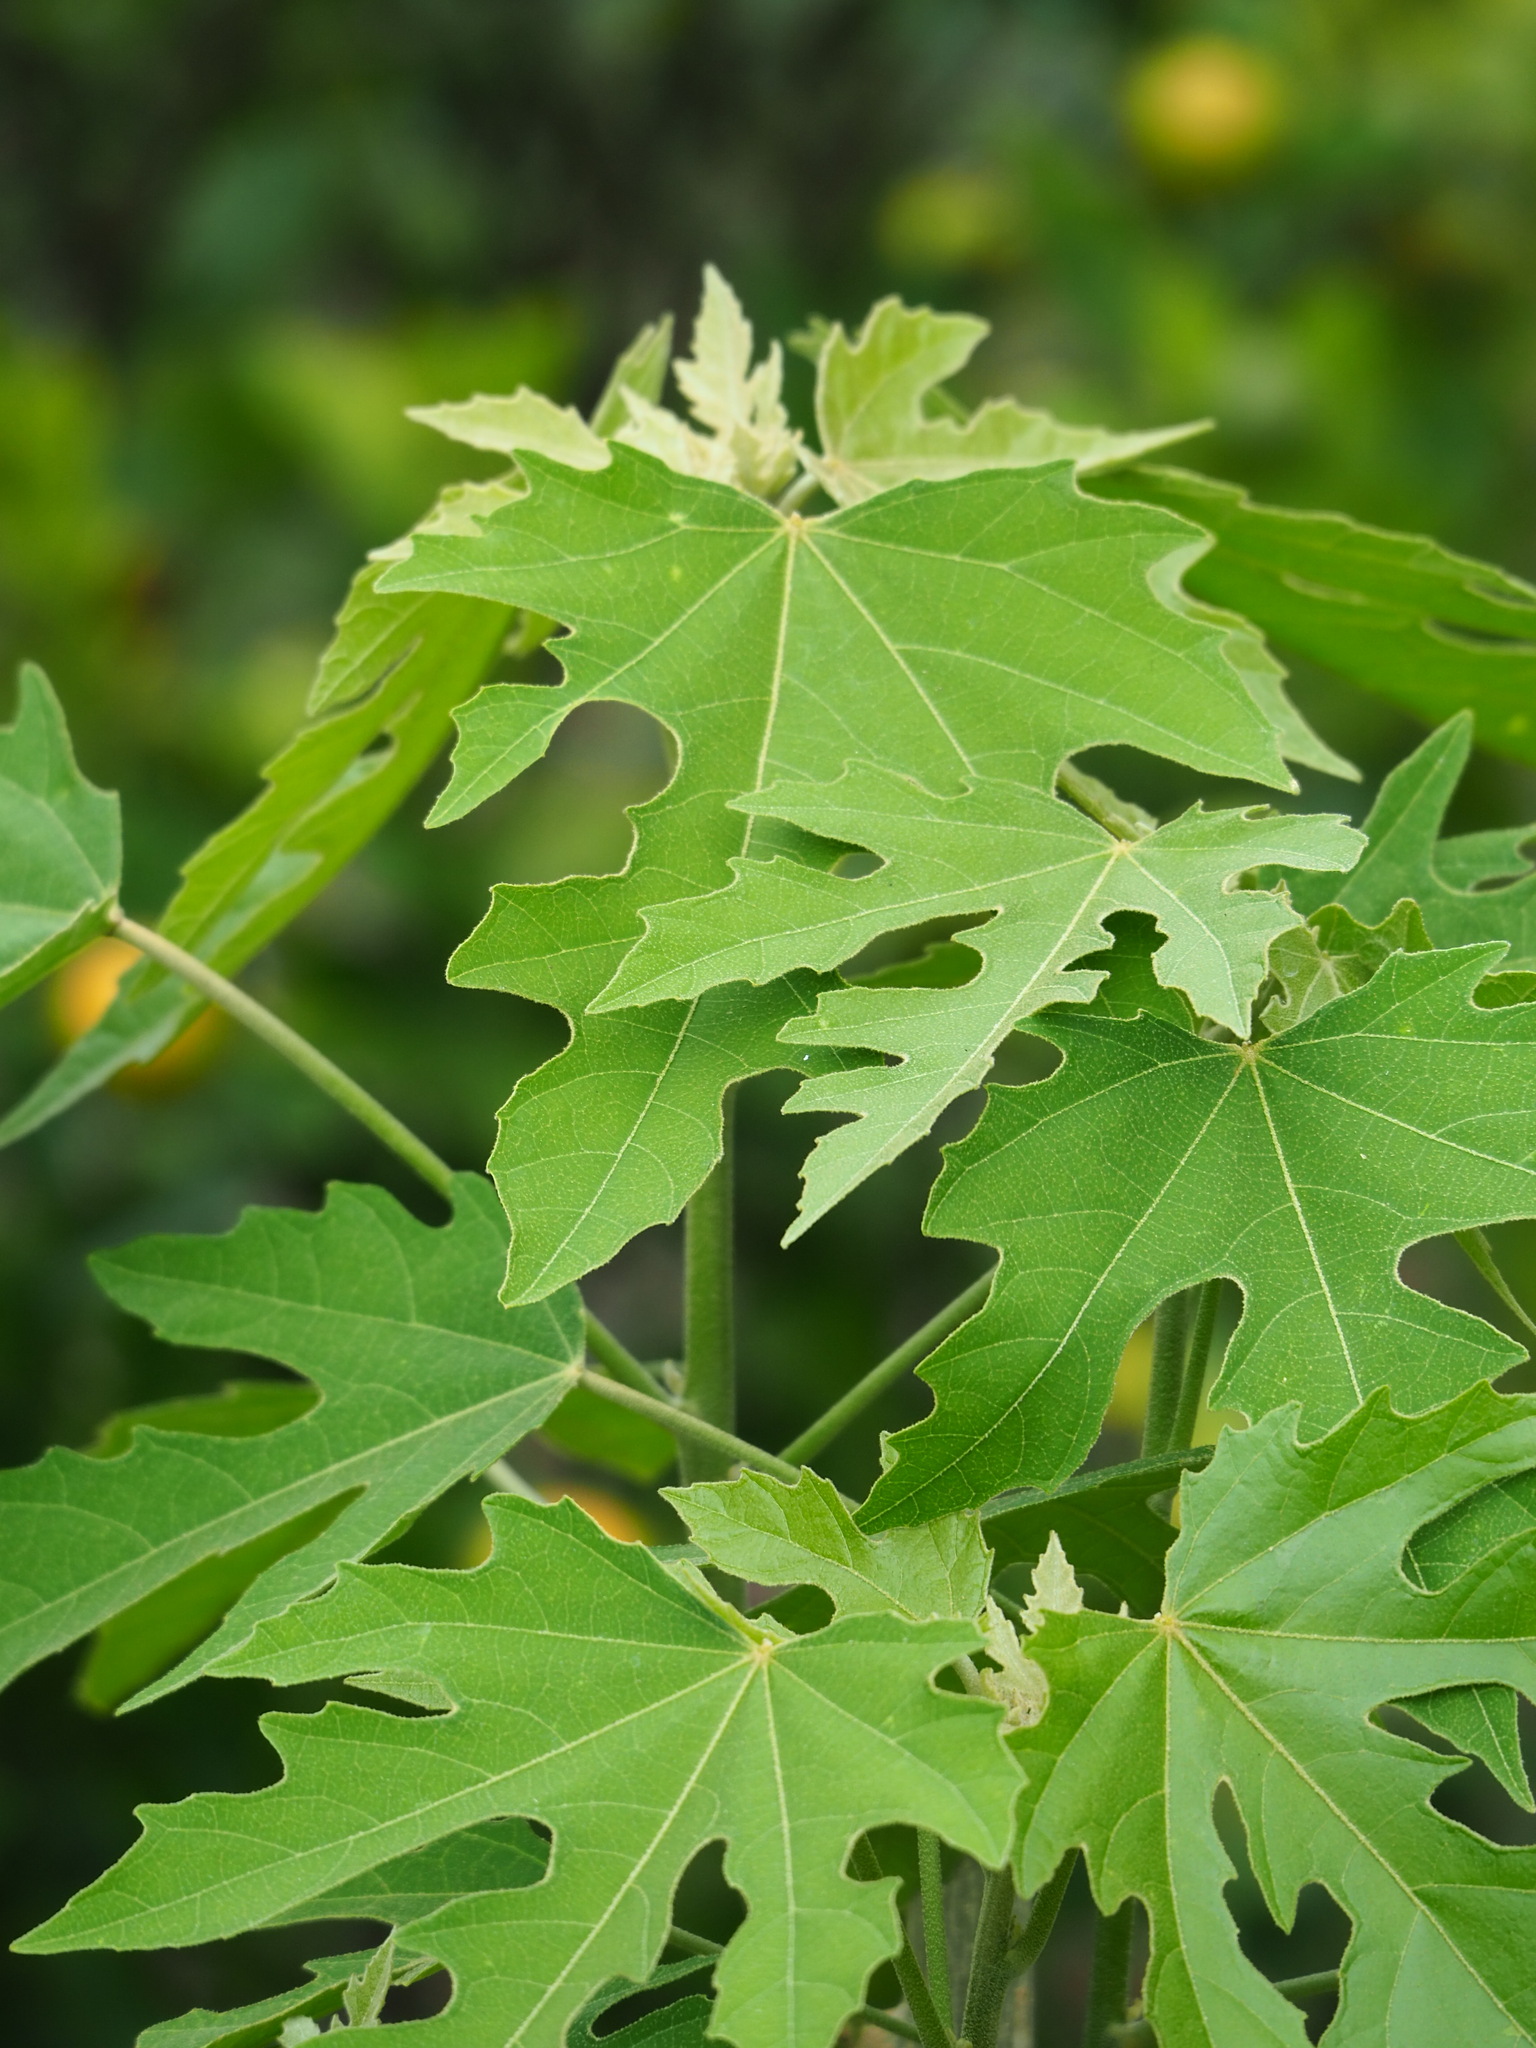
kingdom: Plantae
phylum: Tracheophyta
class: Magnoliopsida
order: Malpighiales
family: Euphorbiaceae
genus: Melanolepis
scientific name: Melanolepis multiglandulosa
